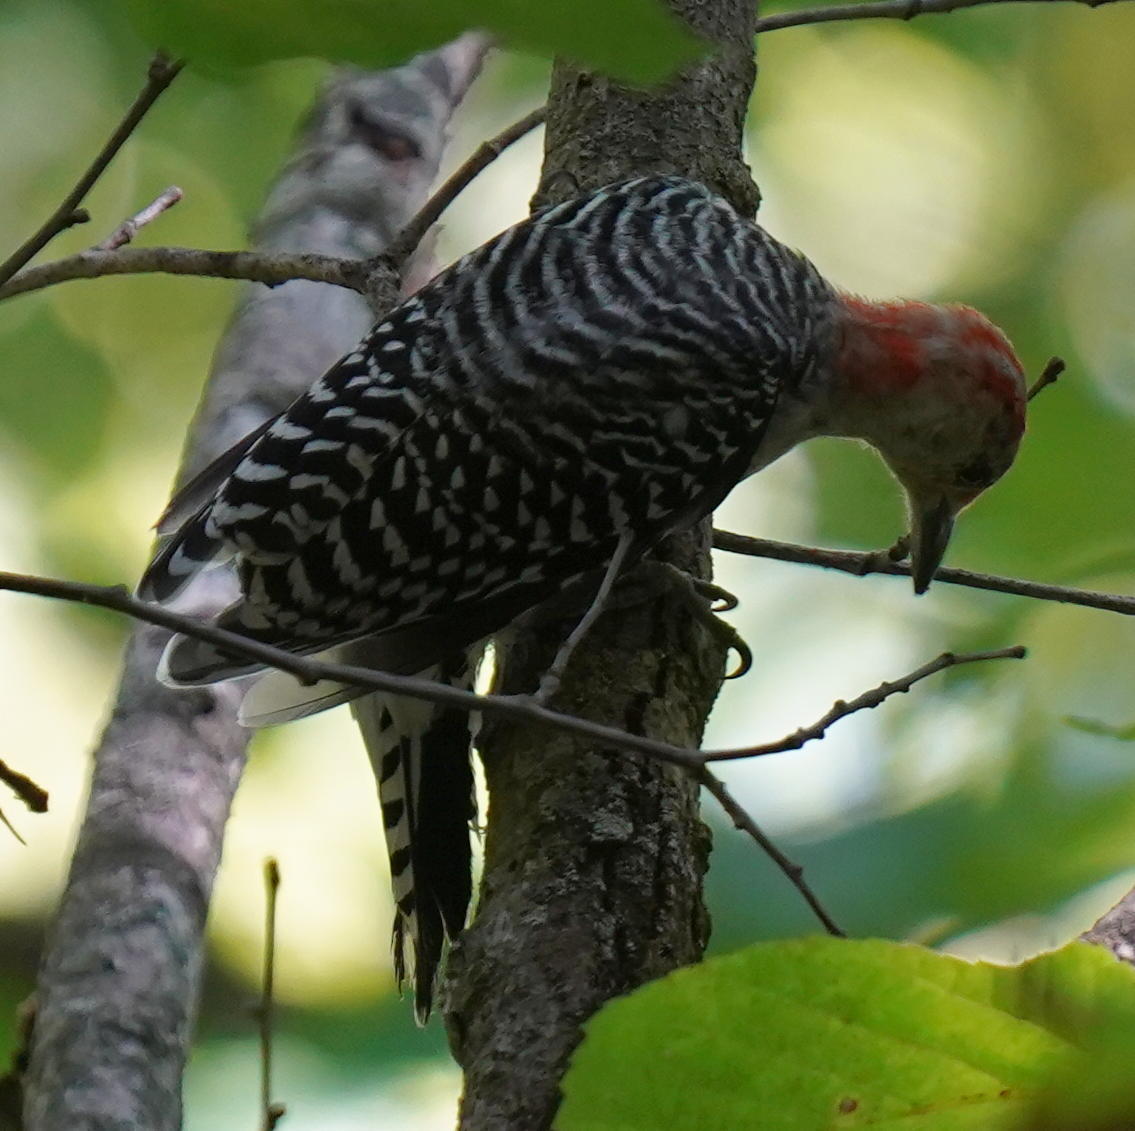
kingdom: Animalia
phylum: Chordata
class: Aves
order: Piciformes
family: Picidae
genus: Melanerpes
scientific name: Melanerpes carolinus
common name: Red-bellied woodpecker
